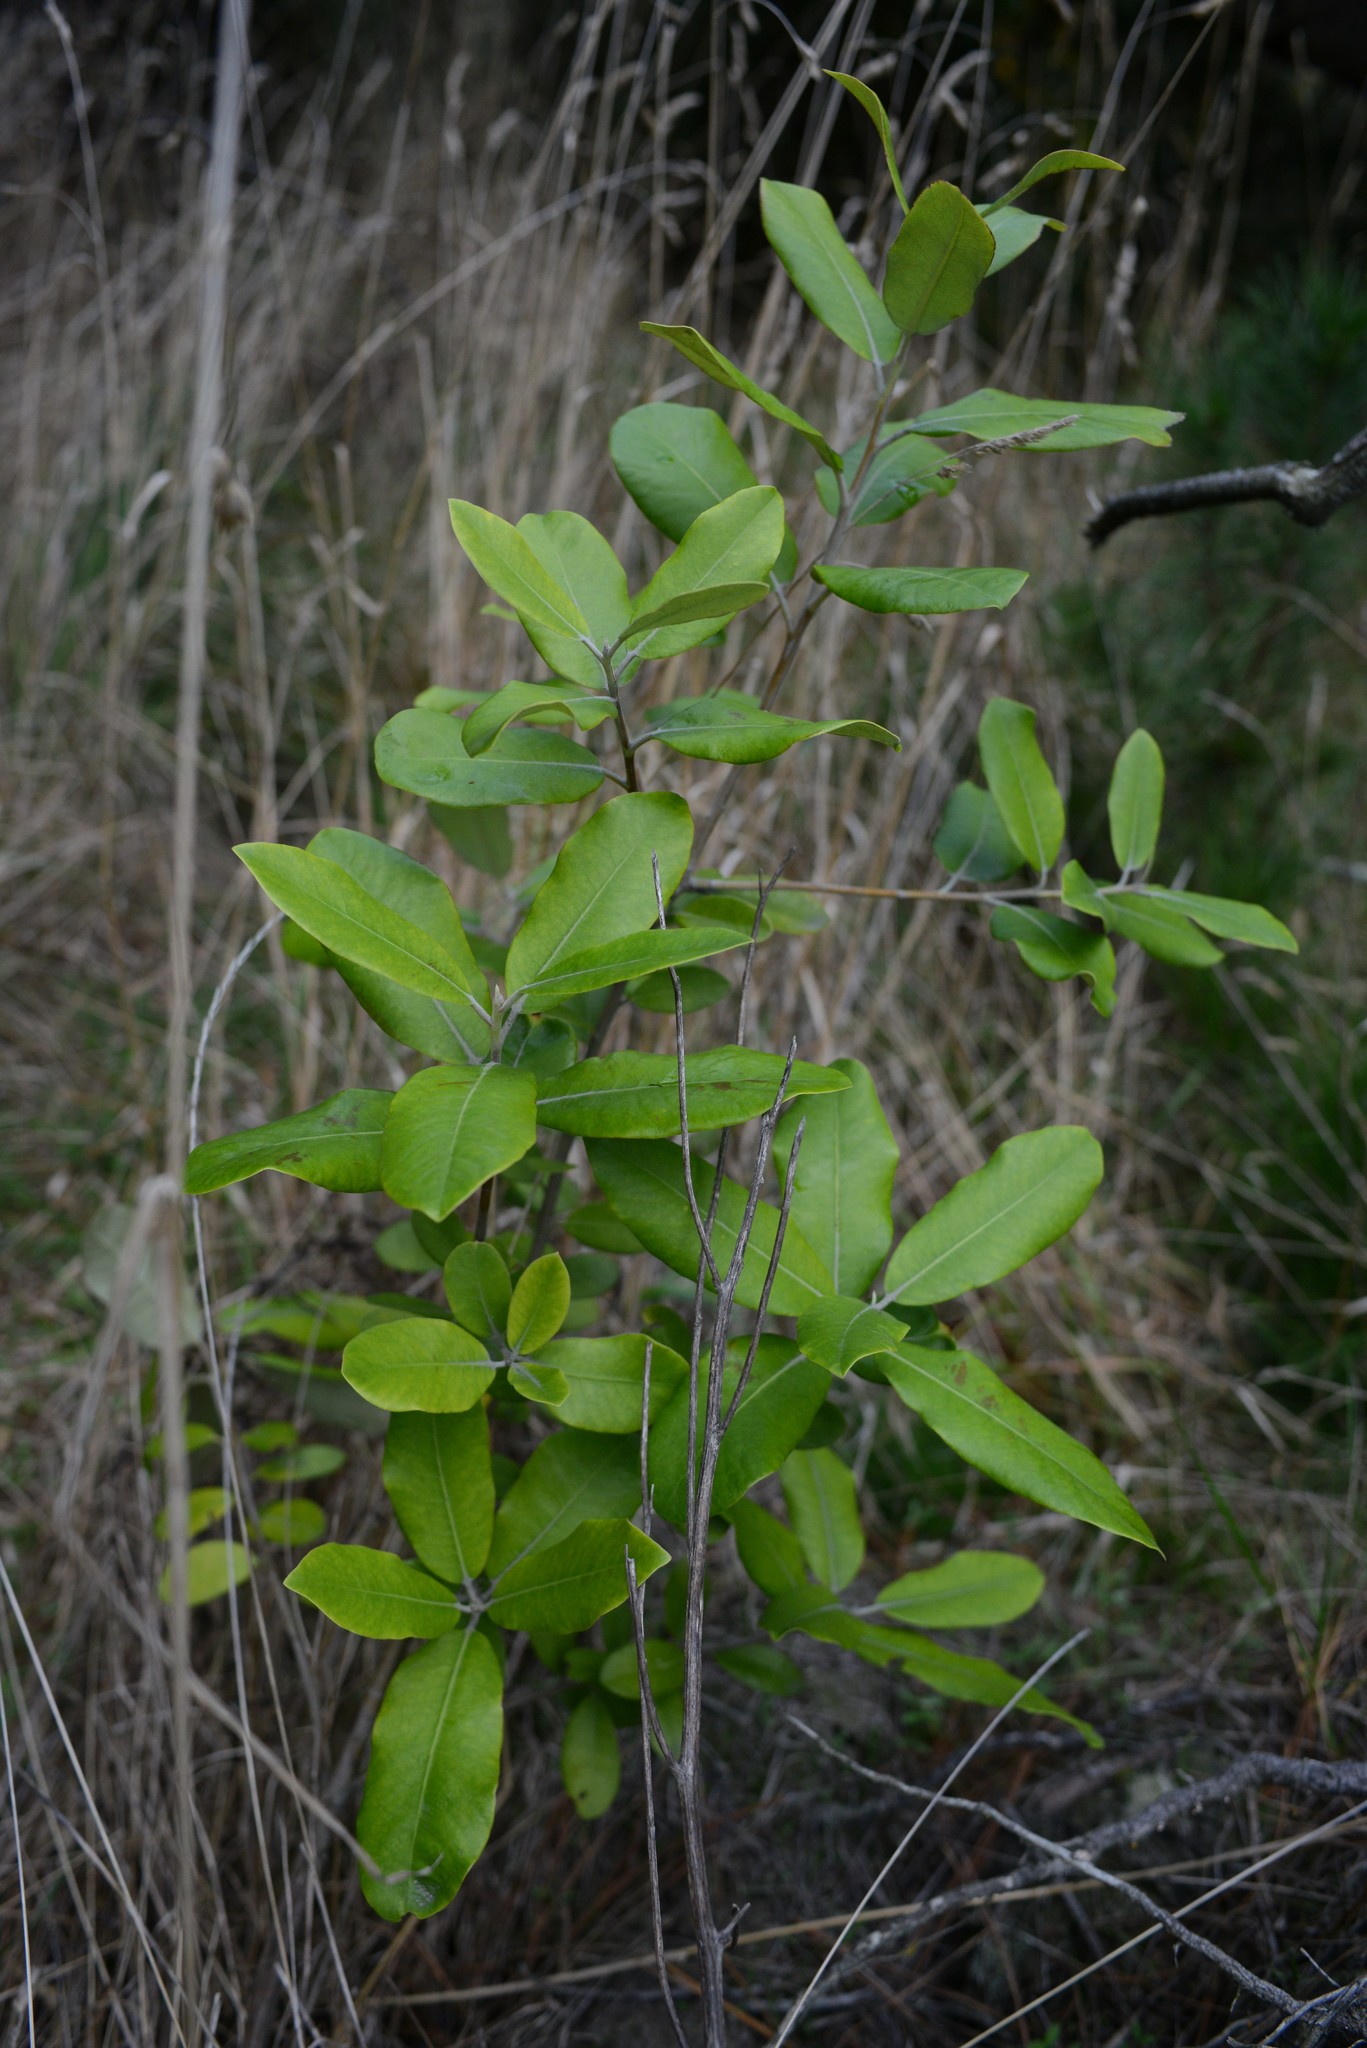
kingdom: Plantae
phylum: Tracheophyta
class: Magnoliopsida
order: Apiales
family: Pittosporaceae
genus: Pittosporum
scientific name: Pittosporum ralphii
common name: Ralph's desertwillow
